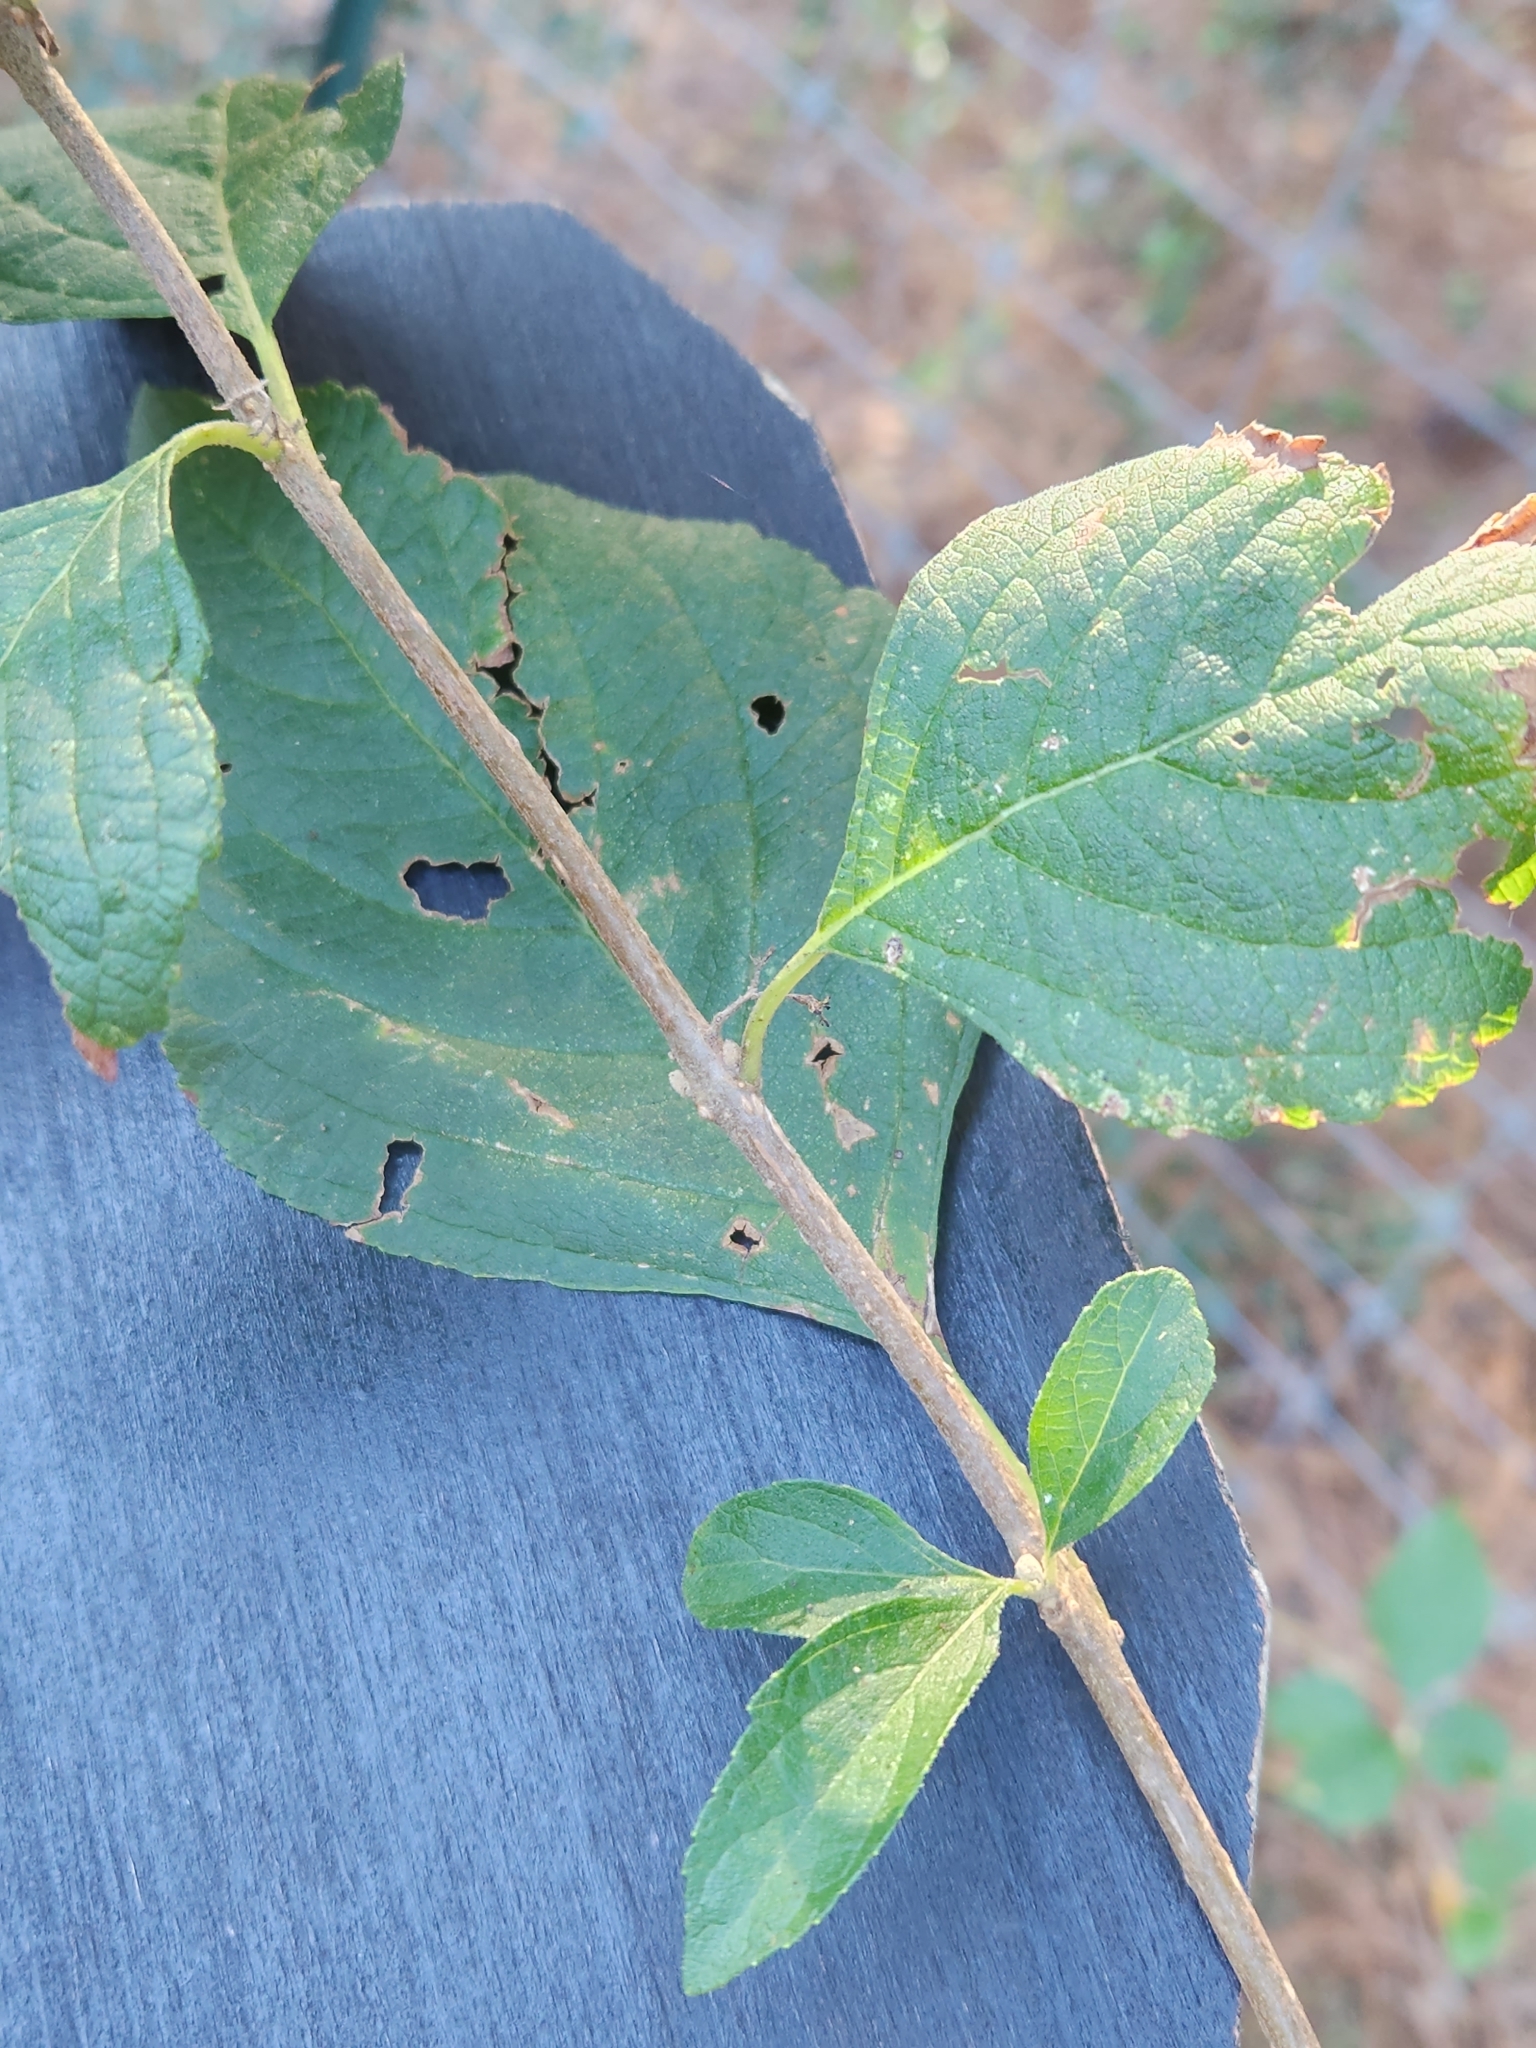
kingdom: Plantae
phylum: Tracheophyta
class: Magnoliopsida
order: Lamiales
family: Lamiaceae
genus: Callicarpa
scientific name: Callicarpa americana
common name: American beautyberry
